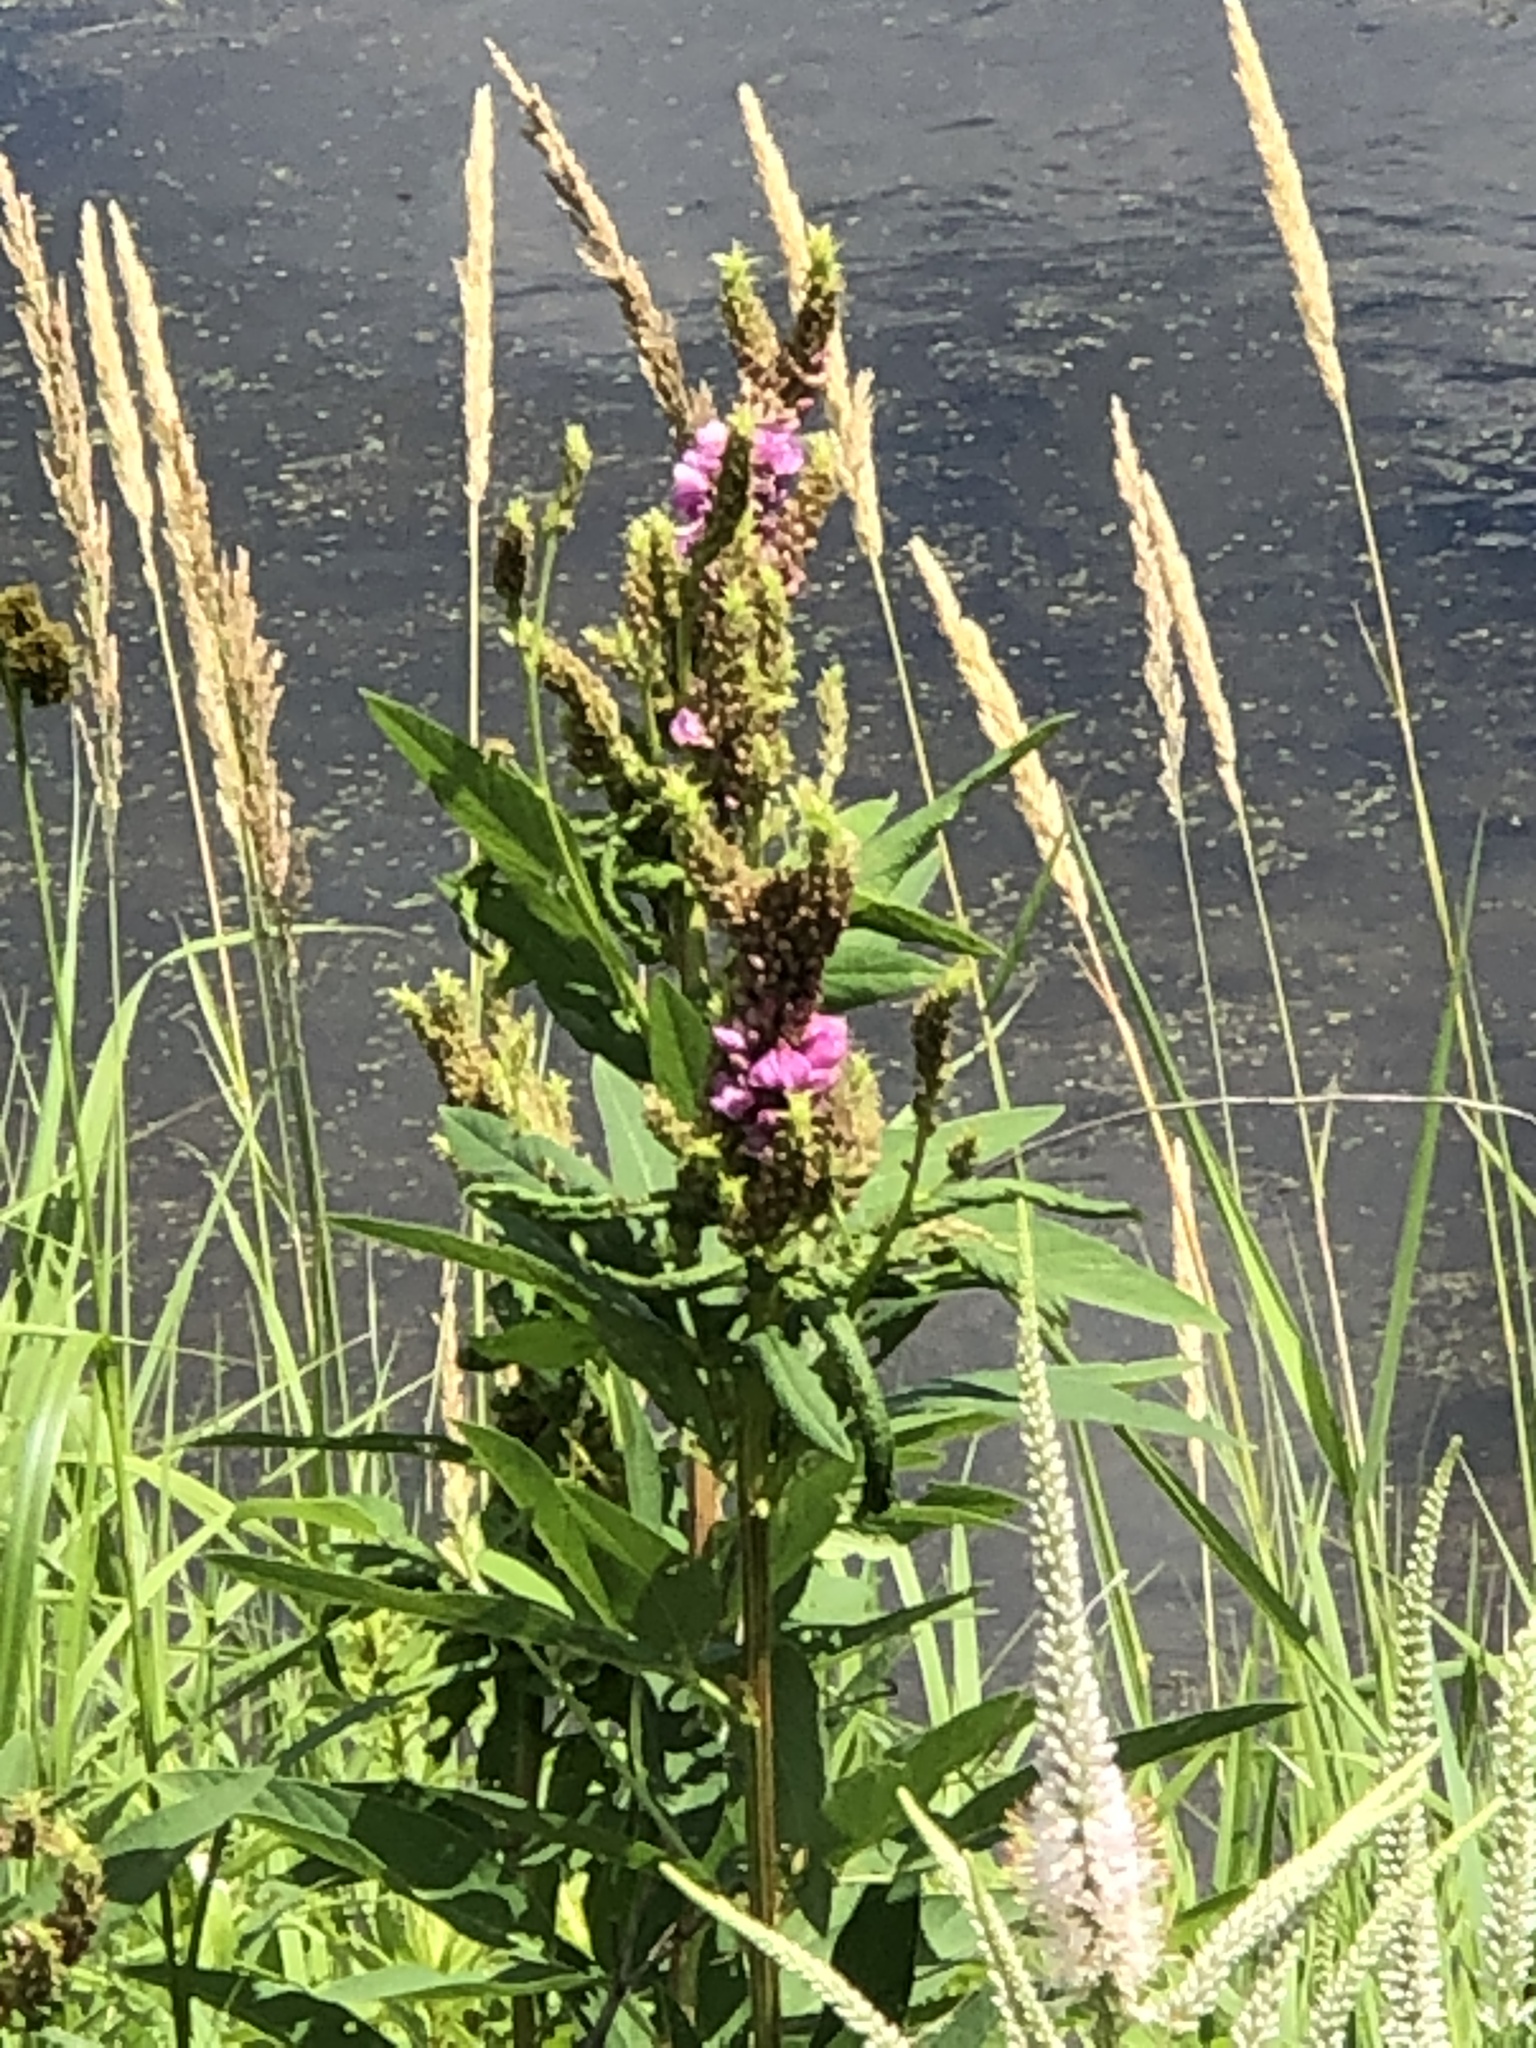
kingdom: Plantae
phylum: Tracheophyta
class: Magnoliopsida
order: Myrtales
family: Lythraceae
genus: Lythrum
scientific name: Lythrum salicaria
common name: Purple loosestrife
